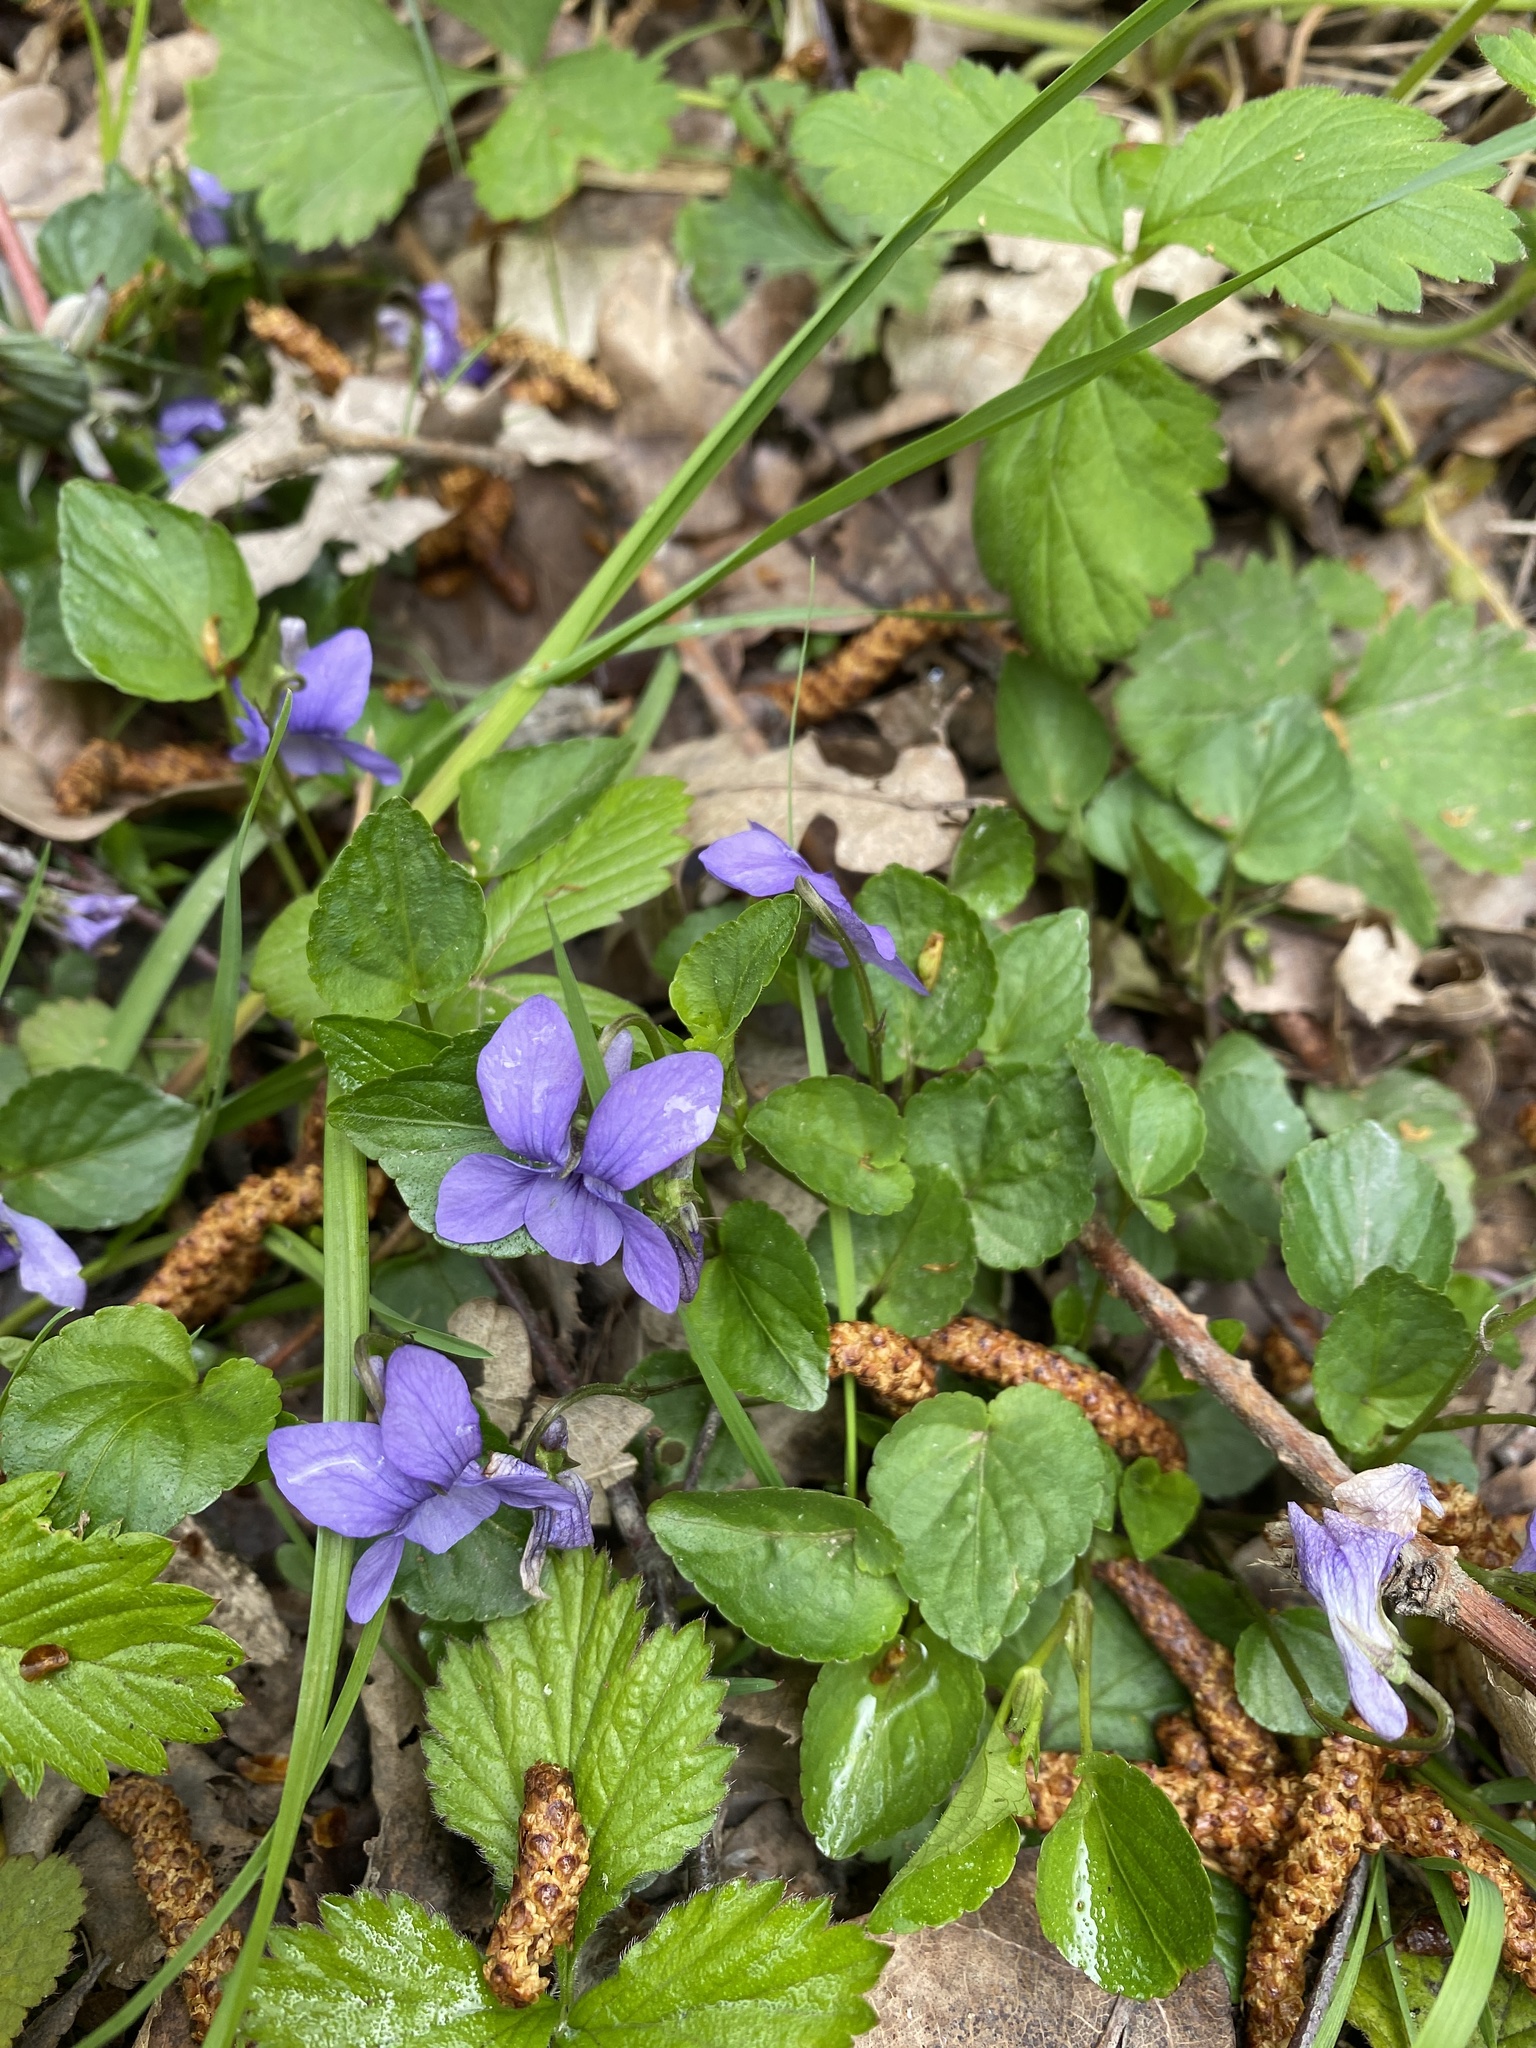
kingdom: Plantae
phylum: Tracheophyta
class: Magnoliopsida
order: Malpighiales
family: Violaceae
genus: Viola
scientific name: Viola riviniana
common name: Common dog-violet
